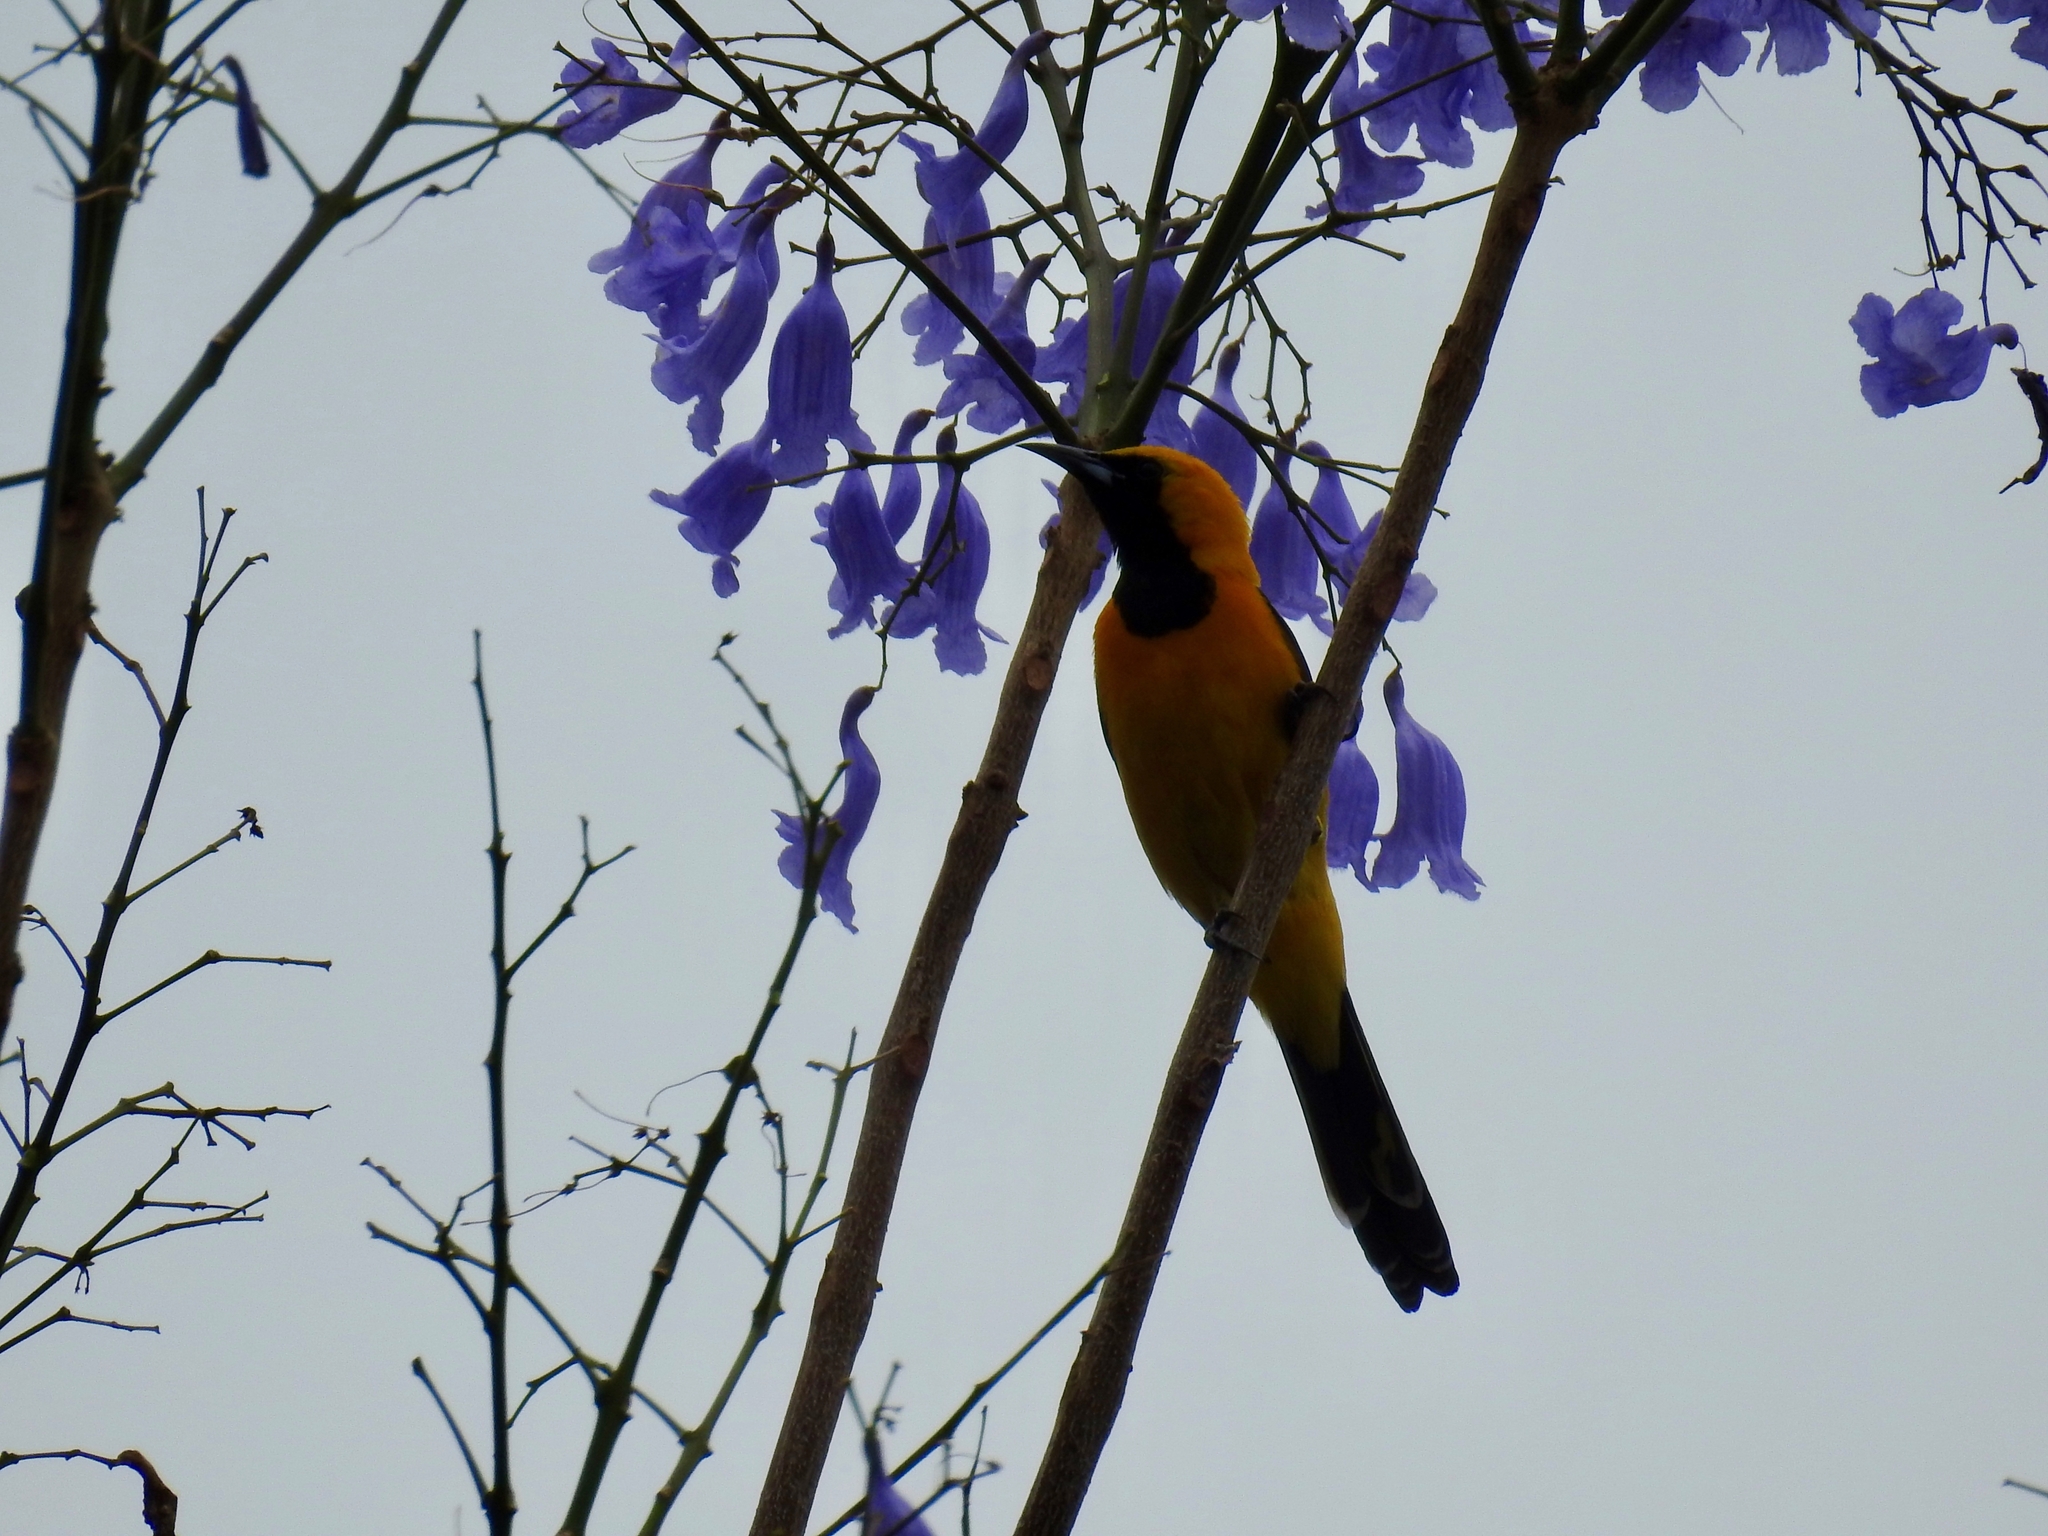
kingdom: Animalia
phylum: Chordata
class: Aves
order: Passeriformes
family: Icteridae
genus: Icterus
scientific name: Icterus cucullatus
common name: Hooded oriole
